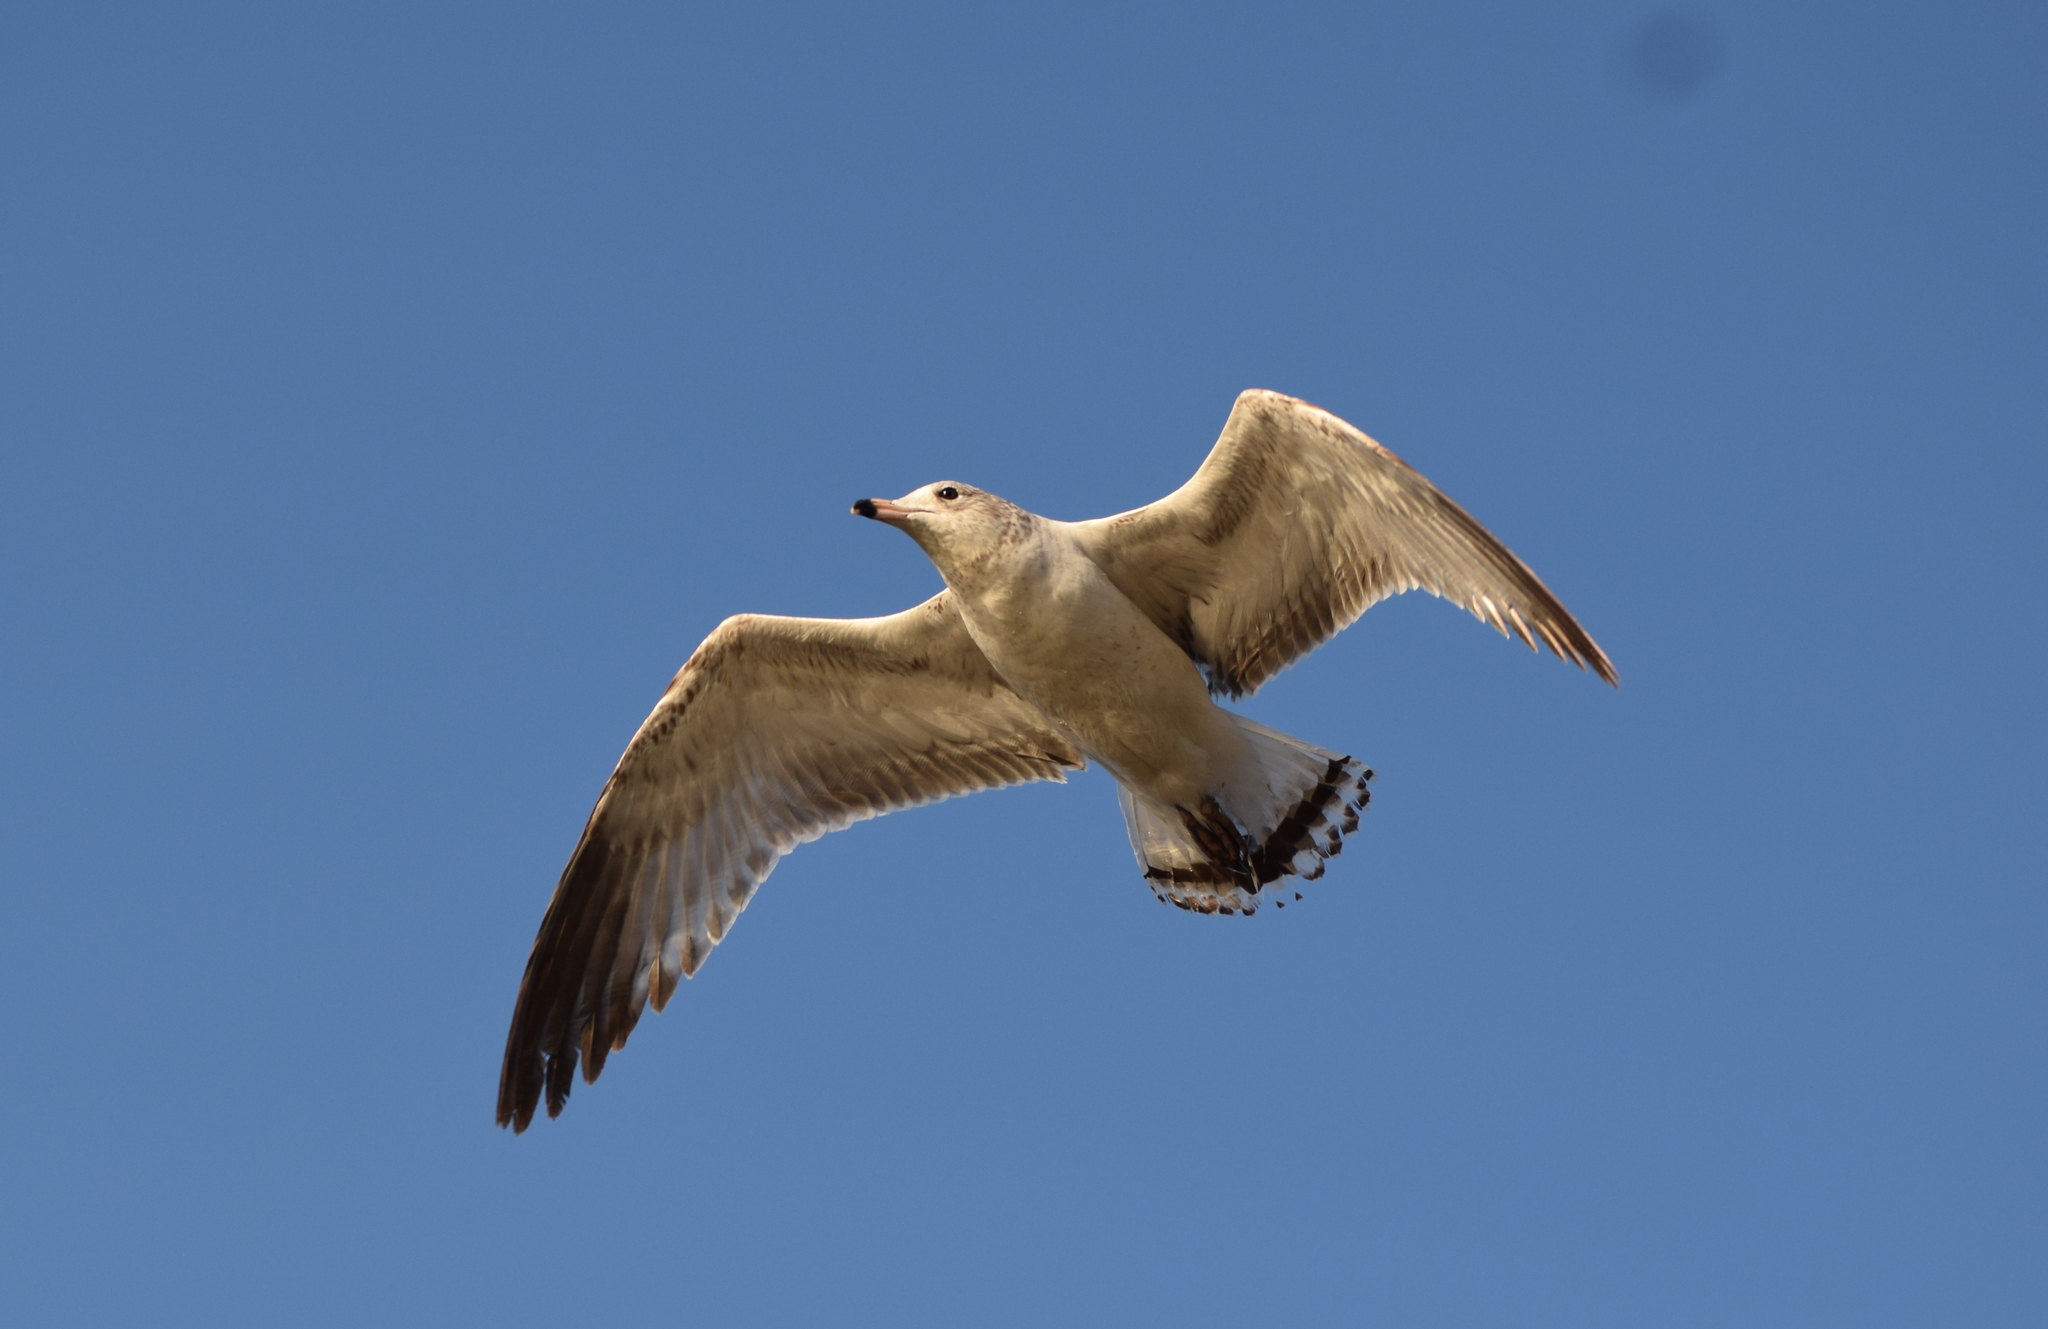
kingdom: Animalia
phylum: Chordata
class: Aves
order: Charadriiformes
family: Laridae
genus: Larus
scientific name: Larus delawarensis
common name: Ring-billed gull
